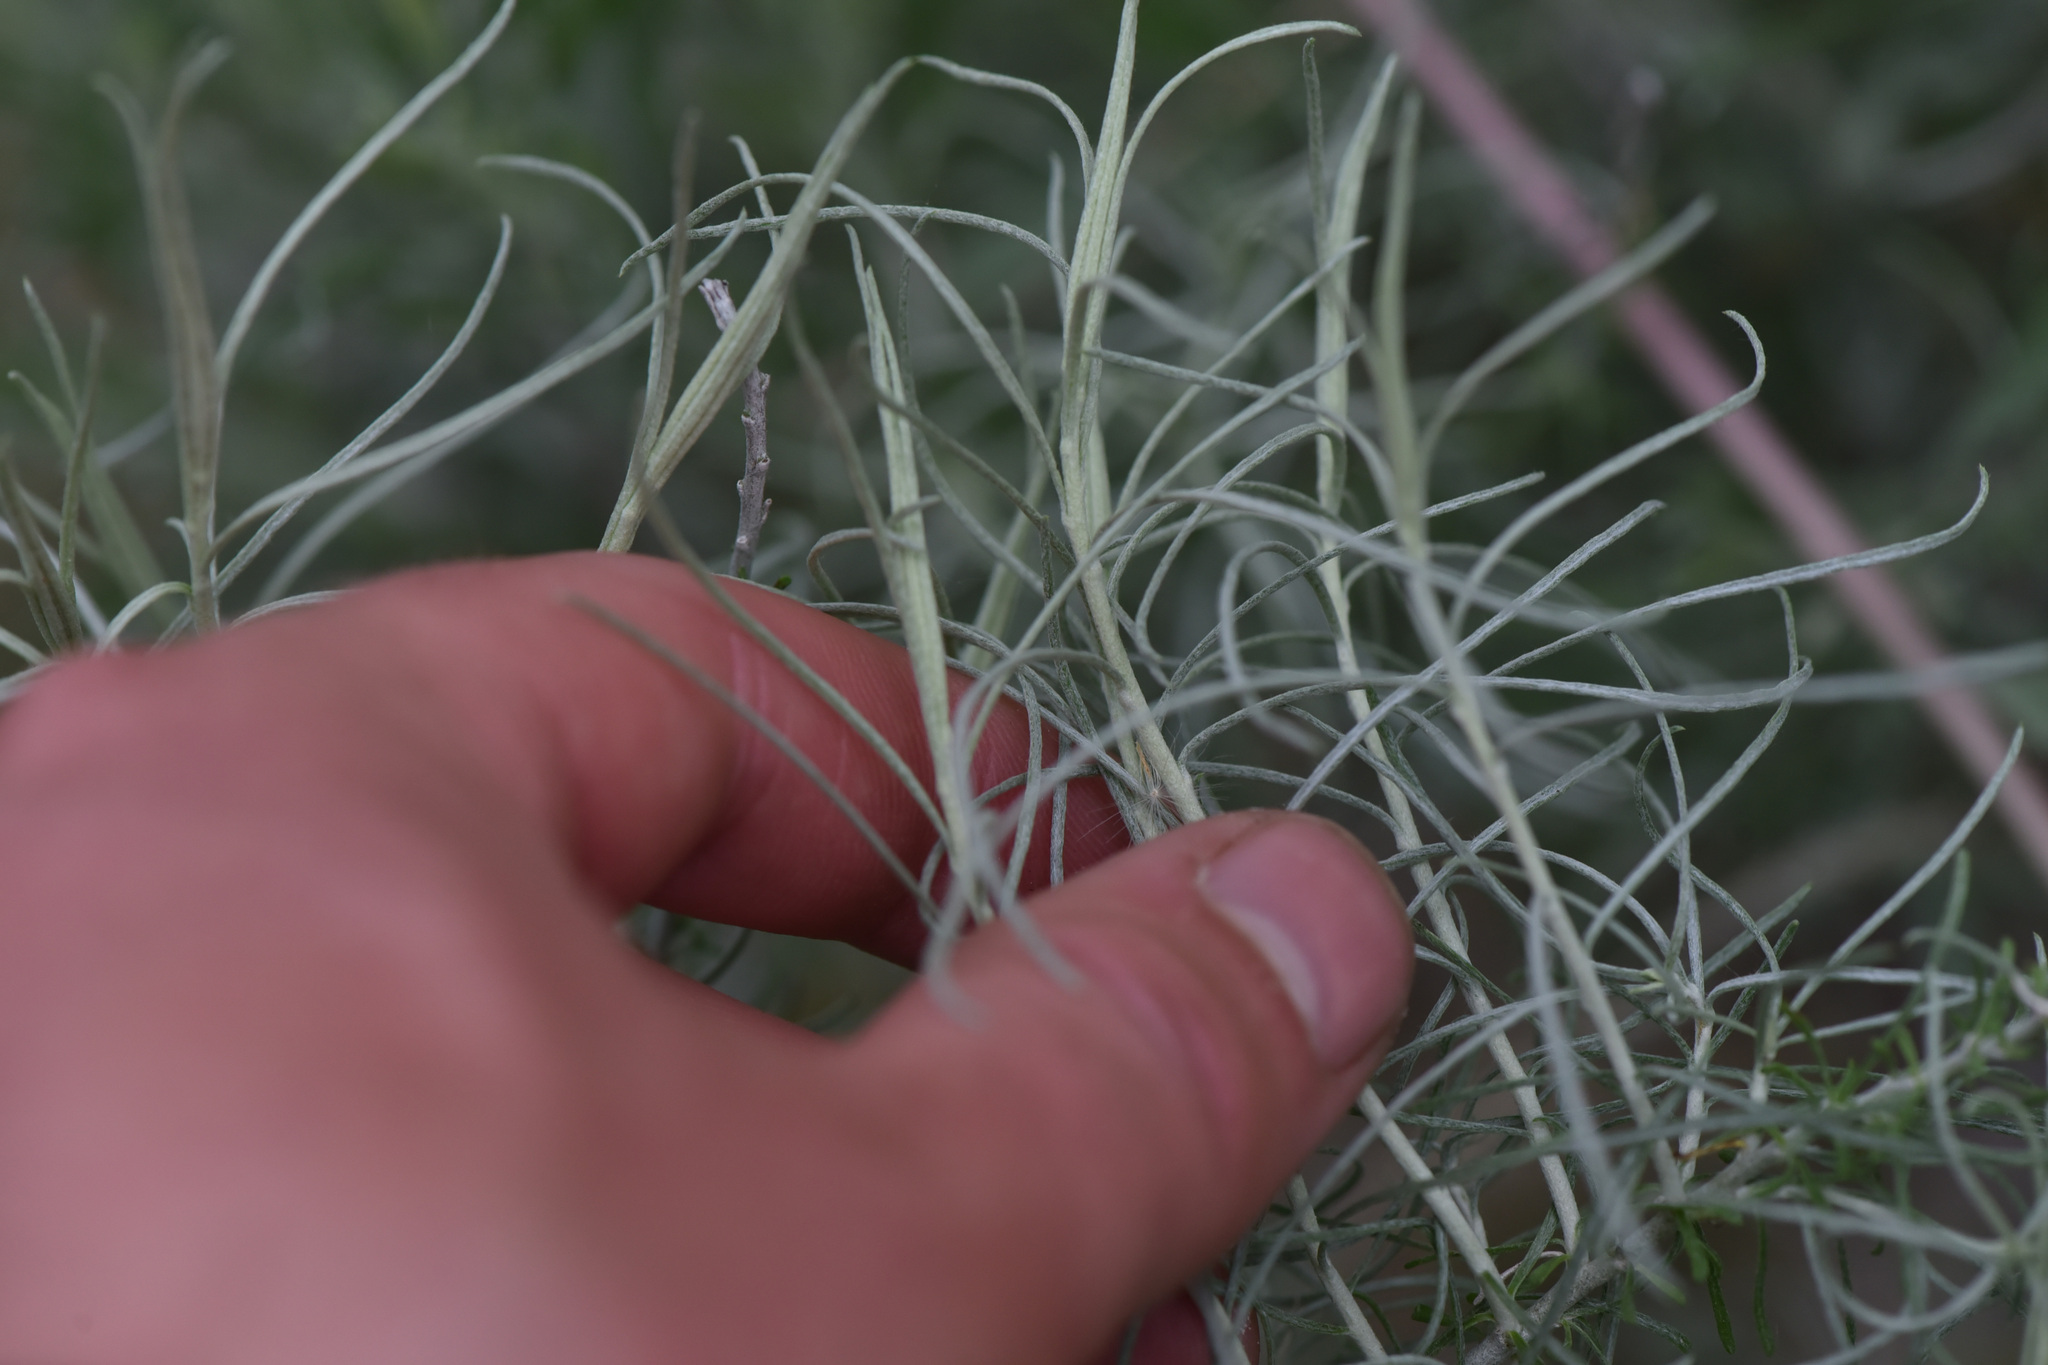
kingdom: Plantae
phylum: Tracheophyta
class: Magnoliopsida
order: Asterales
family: Asteraceae
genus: Ericameria
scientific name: Ericameria nauseosa
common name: Rubber rabbitbrush
